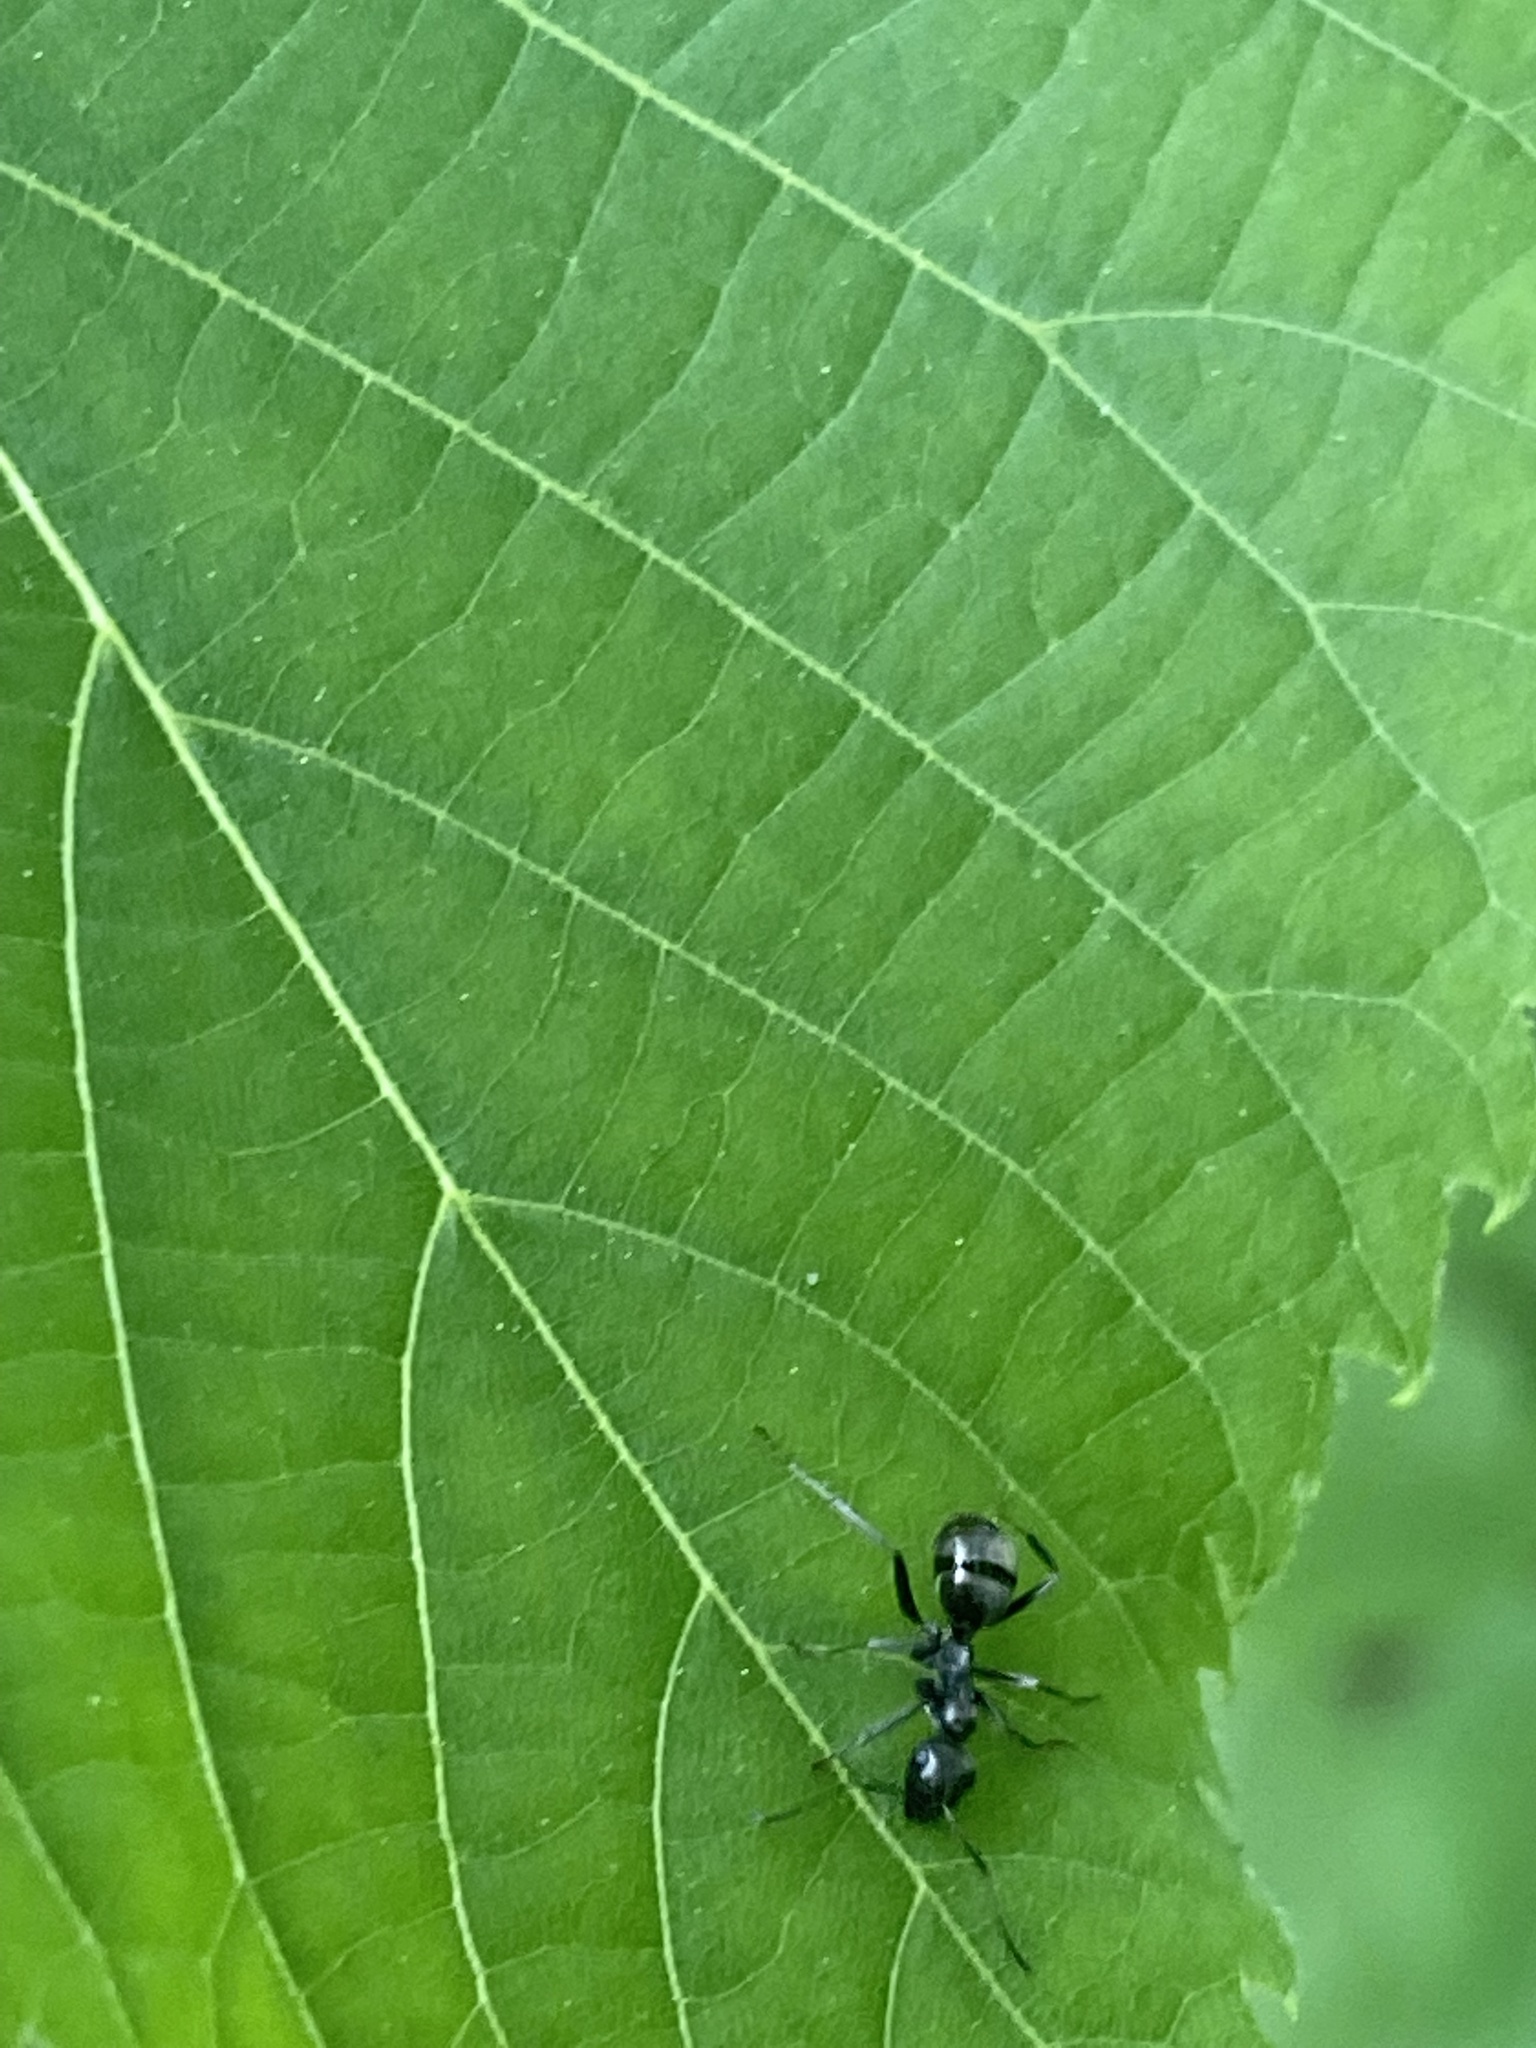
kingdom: Animalia
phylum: Arthropoda
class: Insecta
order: Hymenoptera
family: Formicidae
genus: Formica
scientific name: Formica
